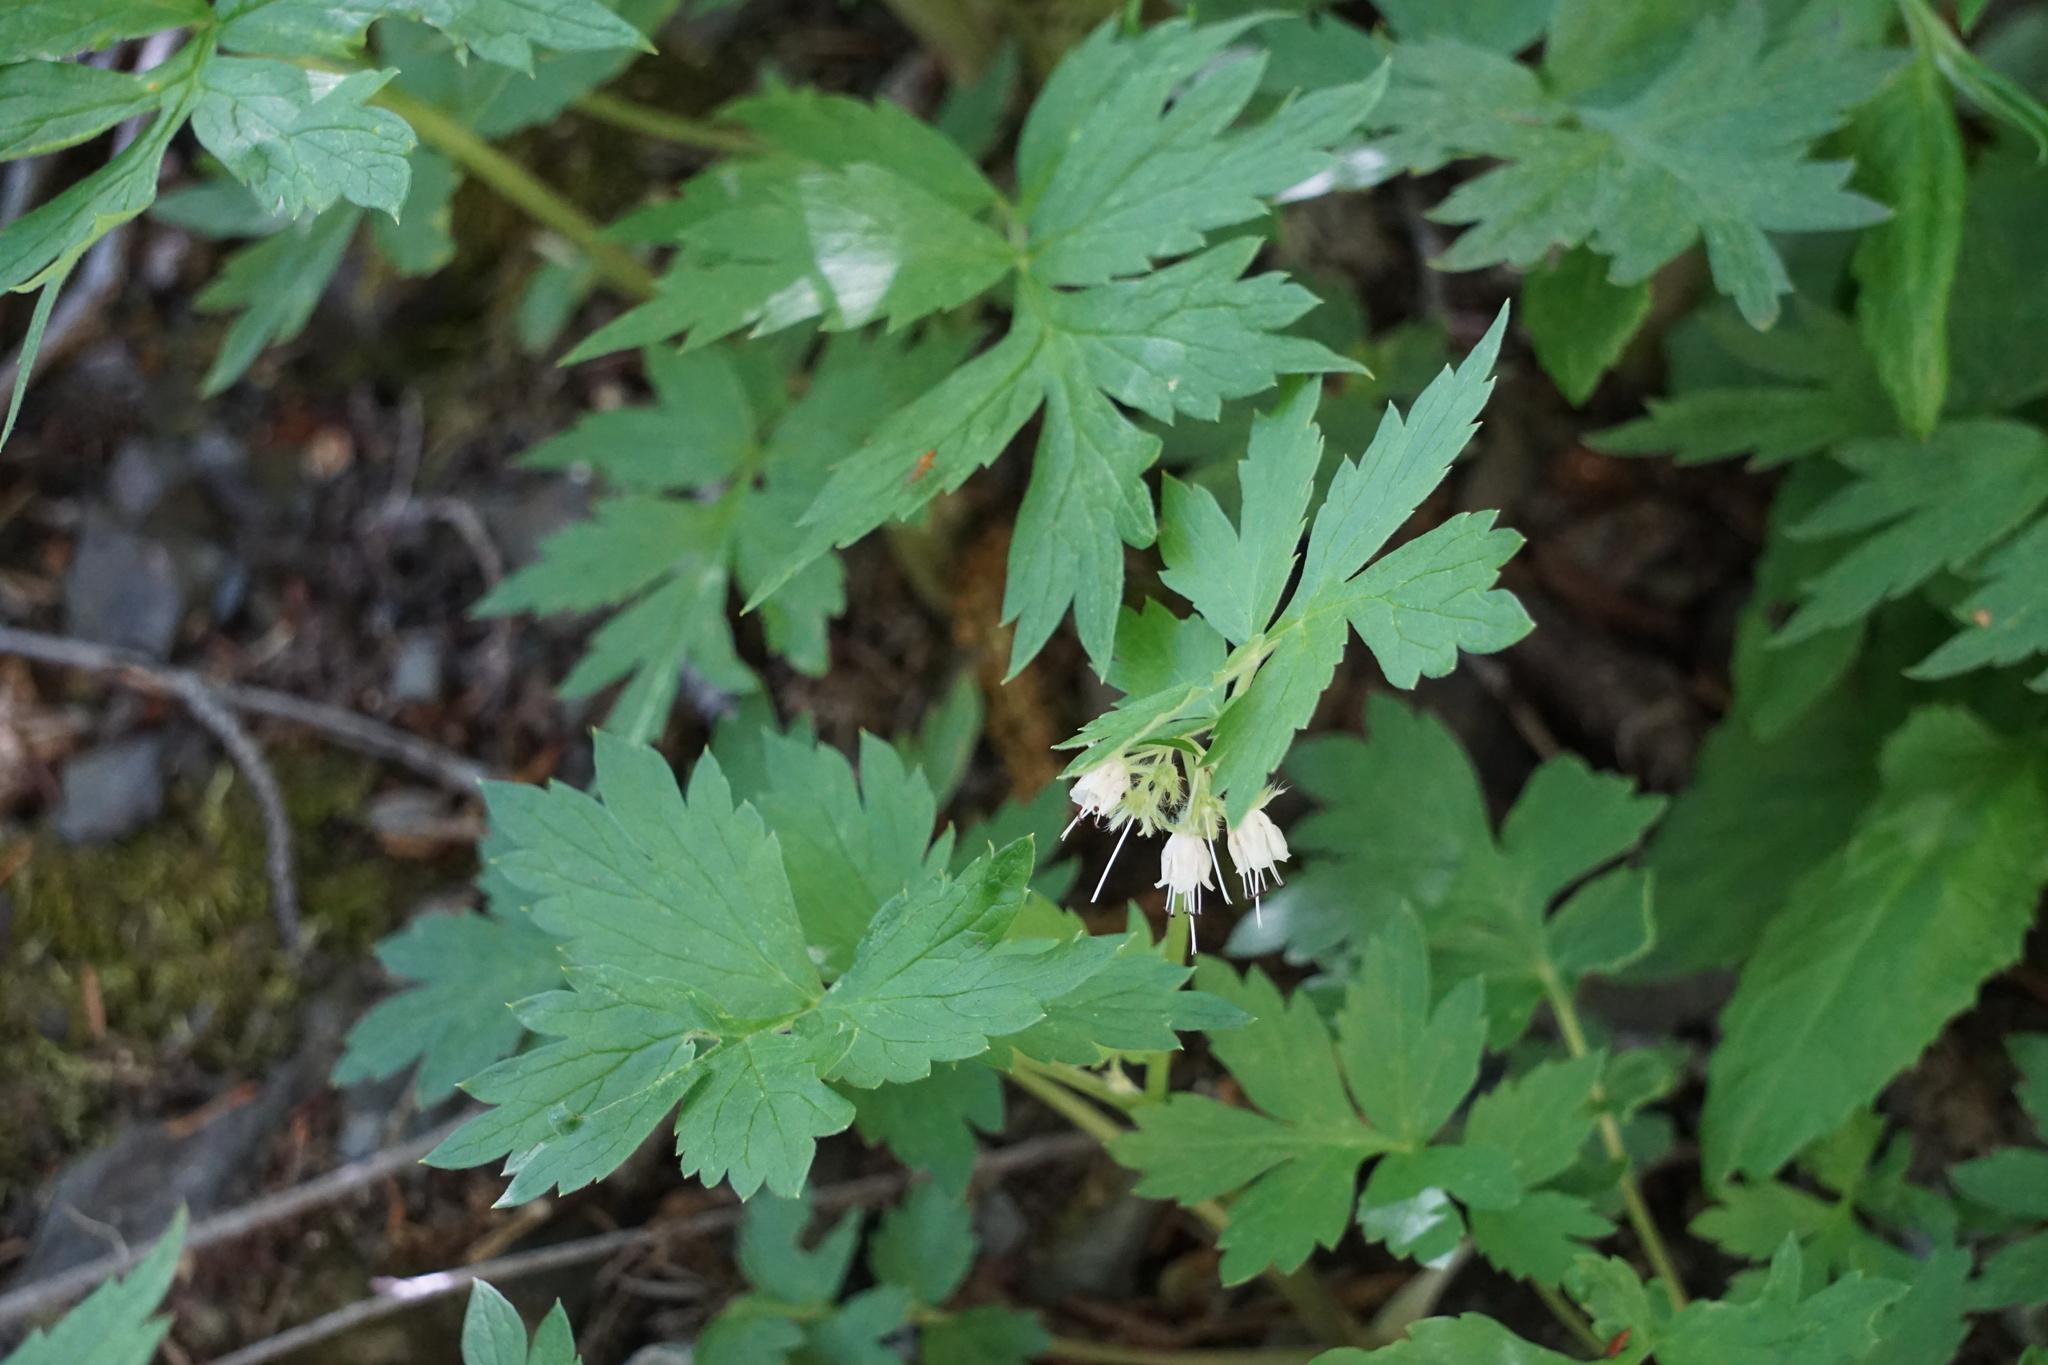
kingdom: Plantae
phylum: Tracheophyta
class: Magnoliopsida
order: Boraginales
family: Hydrophyllaceae
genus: Hydrophyllum
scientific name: Hydrophyllum fendleri
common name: Fendler's waterleaf
